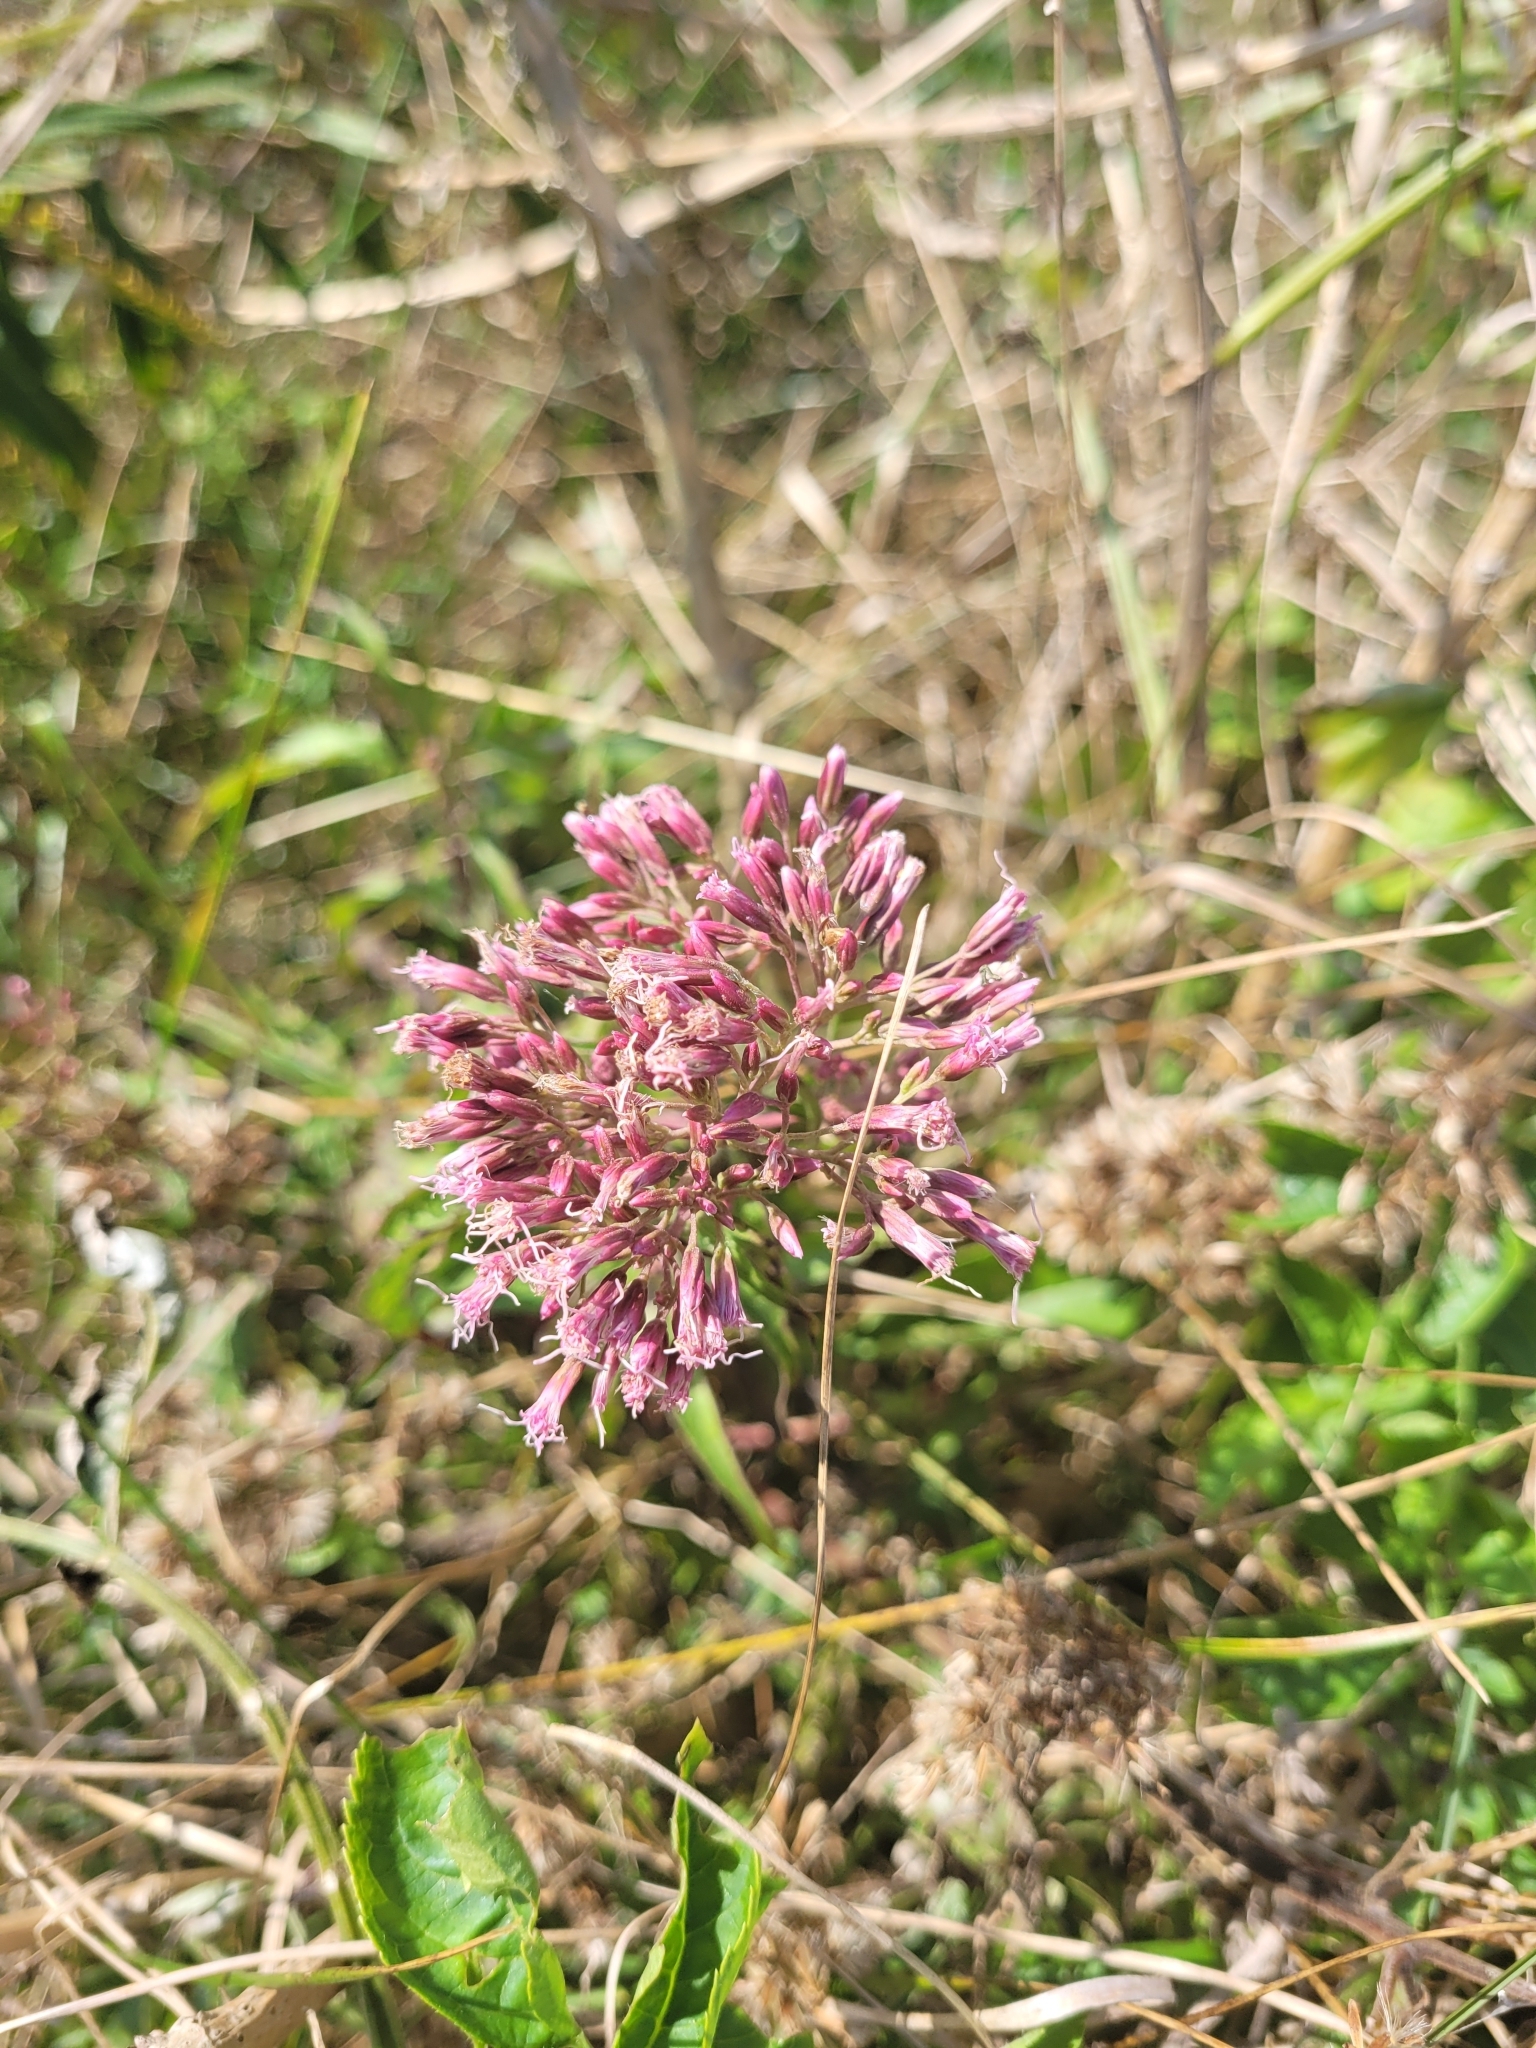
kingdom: Plantae
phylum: Tracheophyta
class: Magnoliopsida
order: Asterales
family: Asteraceae
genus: Eupatorium
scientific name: Eupatorium cannabinum
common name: Hemp-agrimony
